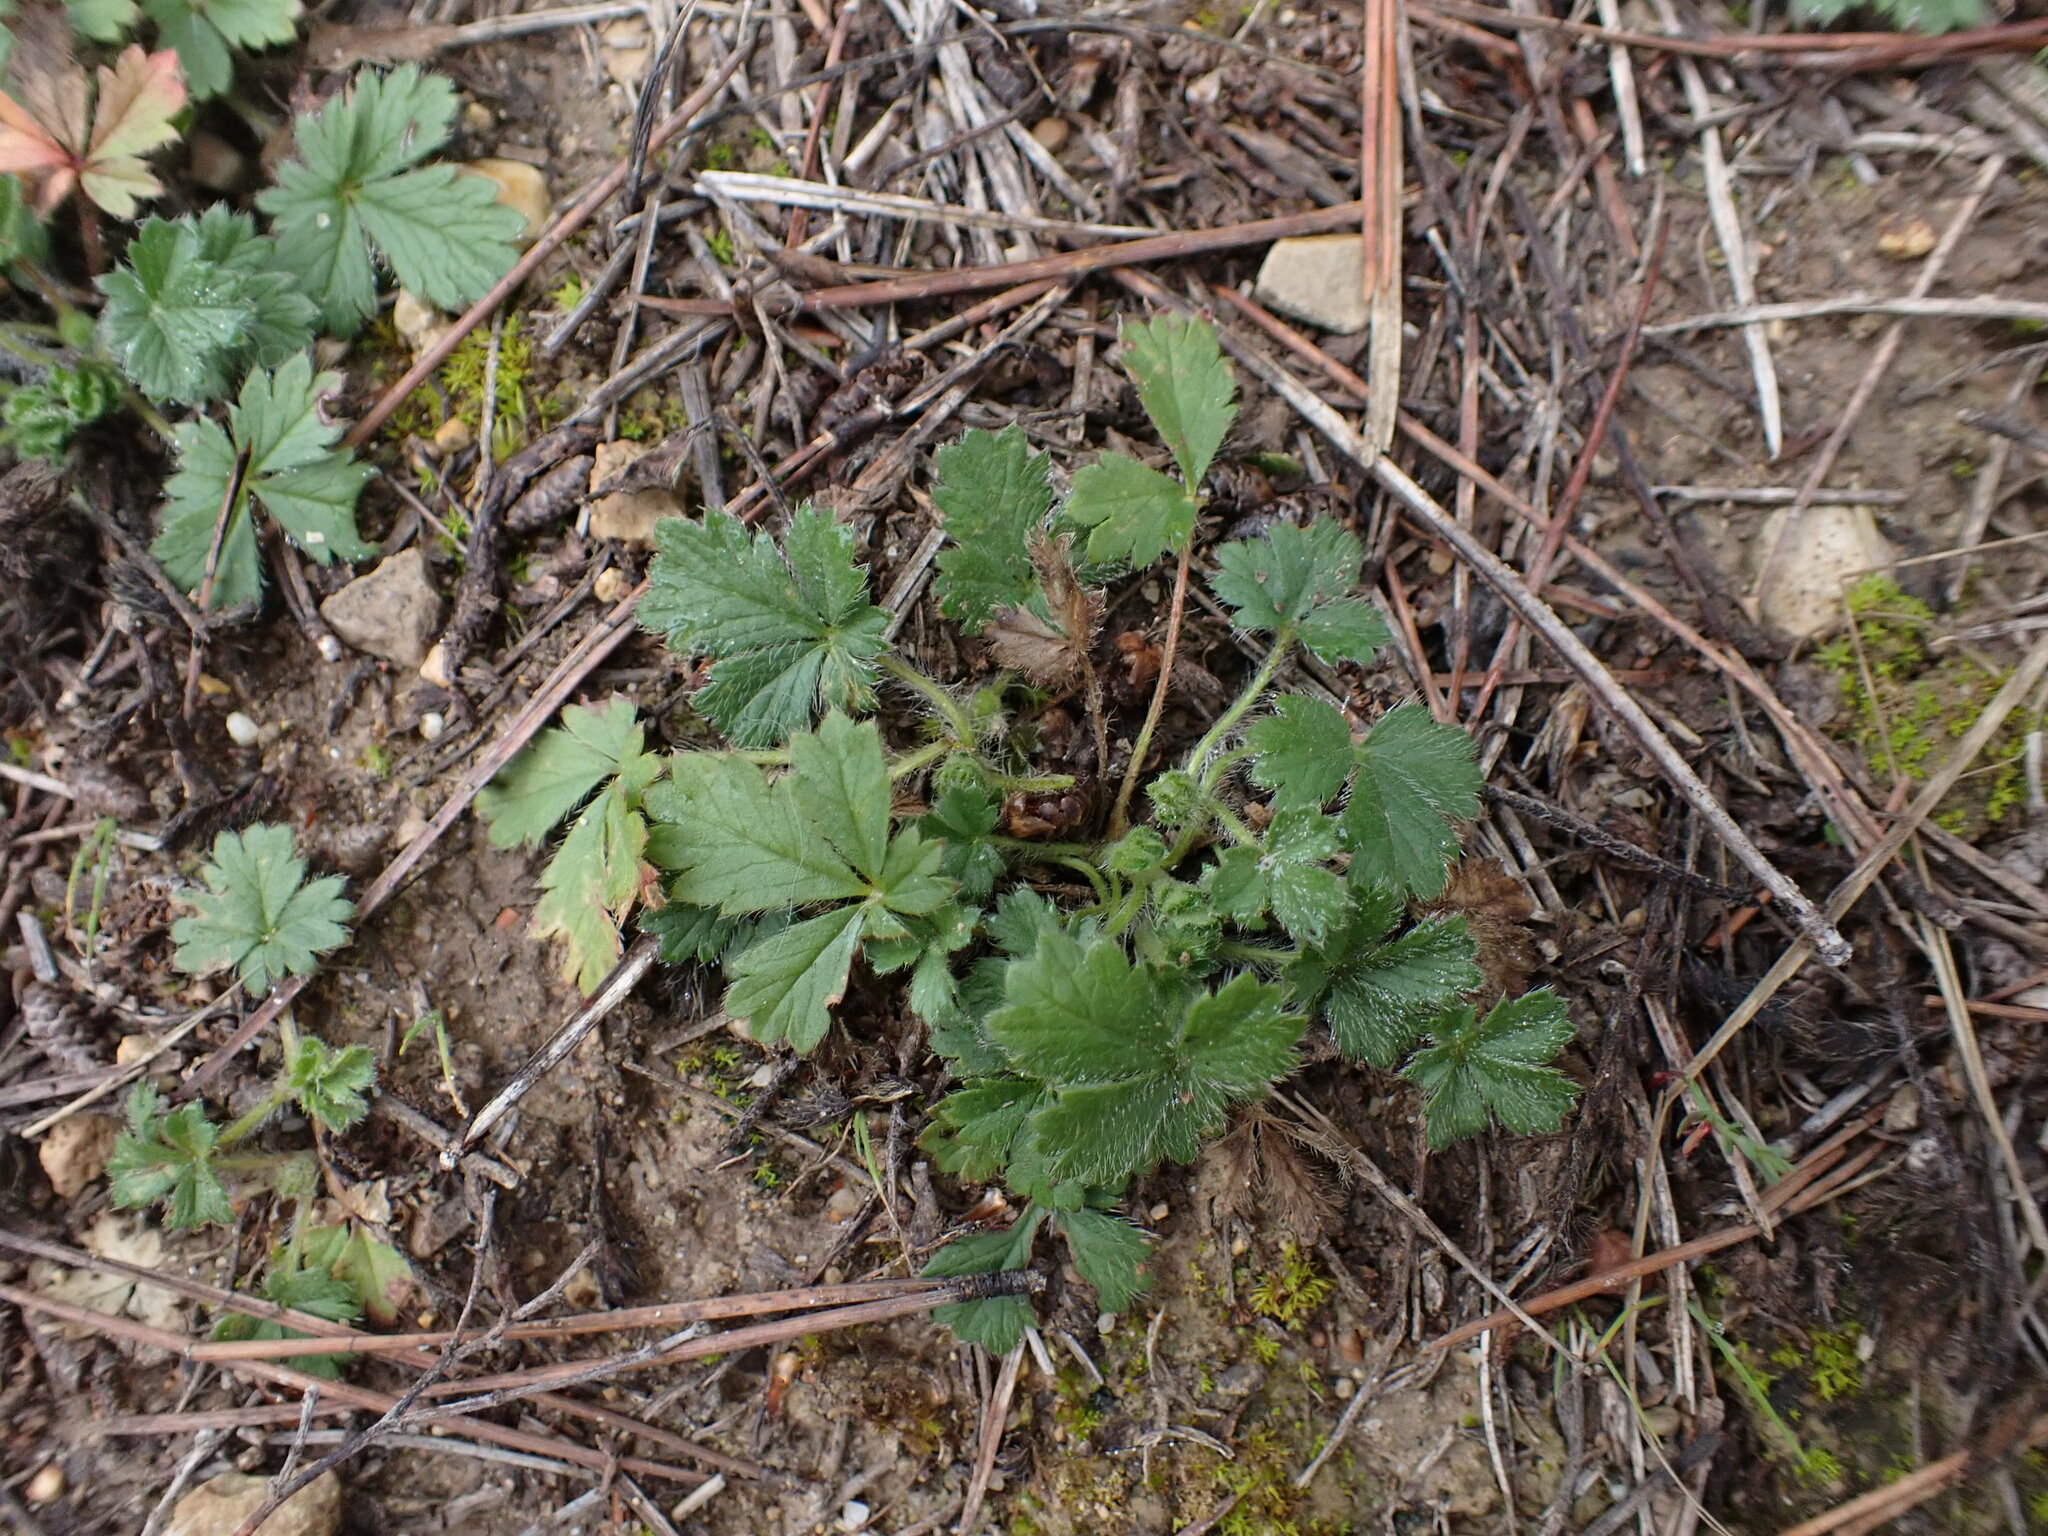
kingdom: Plantae
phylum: Tracheophyta
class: Magnoliopsida
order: Rosales
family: Rosaceae
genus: Potentilla
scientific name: Potentilla verna
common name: Spring cinquefoil
